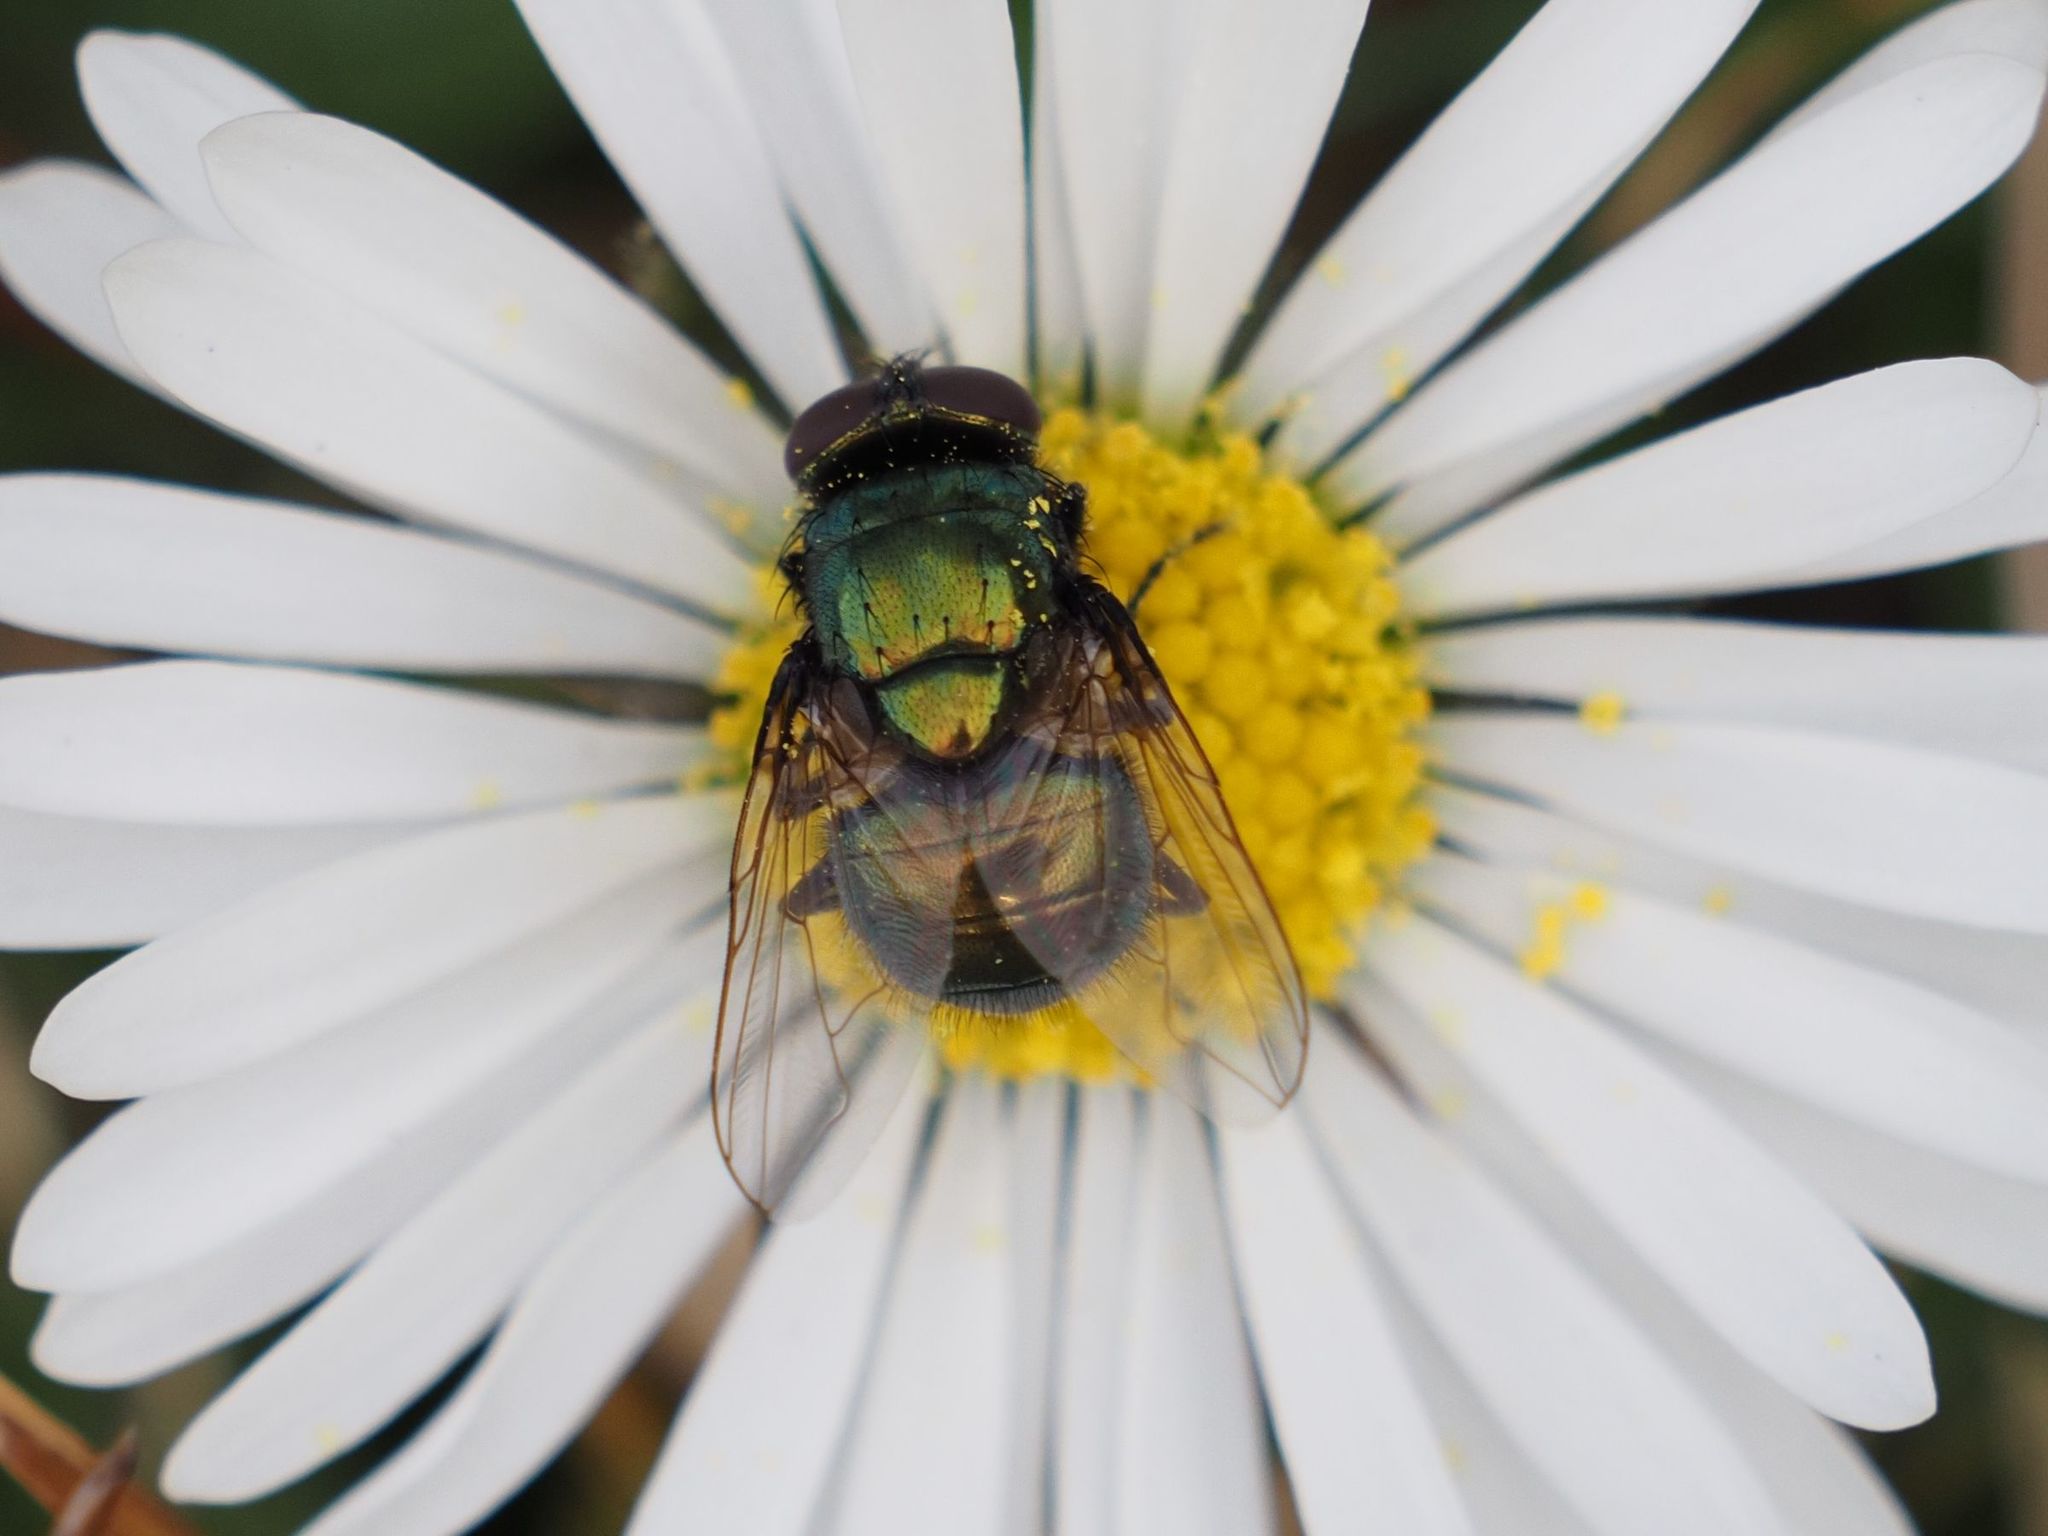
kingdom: Animalia
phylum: Arthropoda
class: Insecta
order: Diptera
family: Muscidae
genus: Neomyia
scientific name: Neomyia cornicina
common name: House fly
